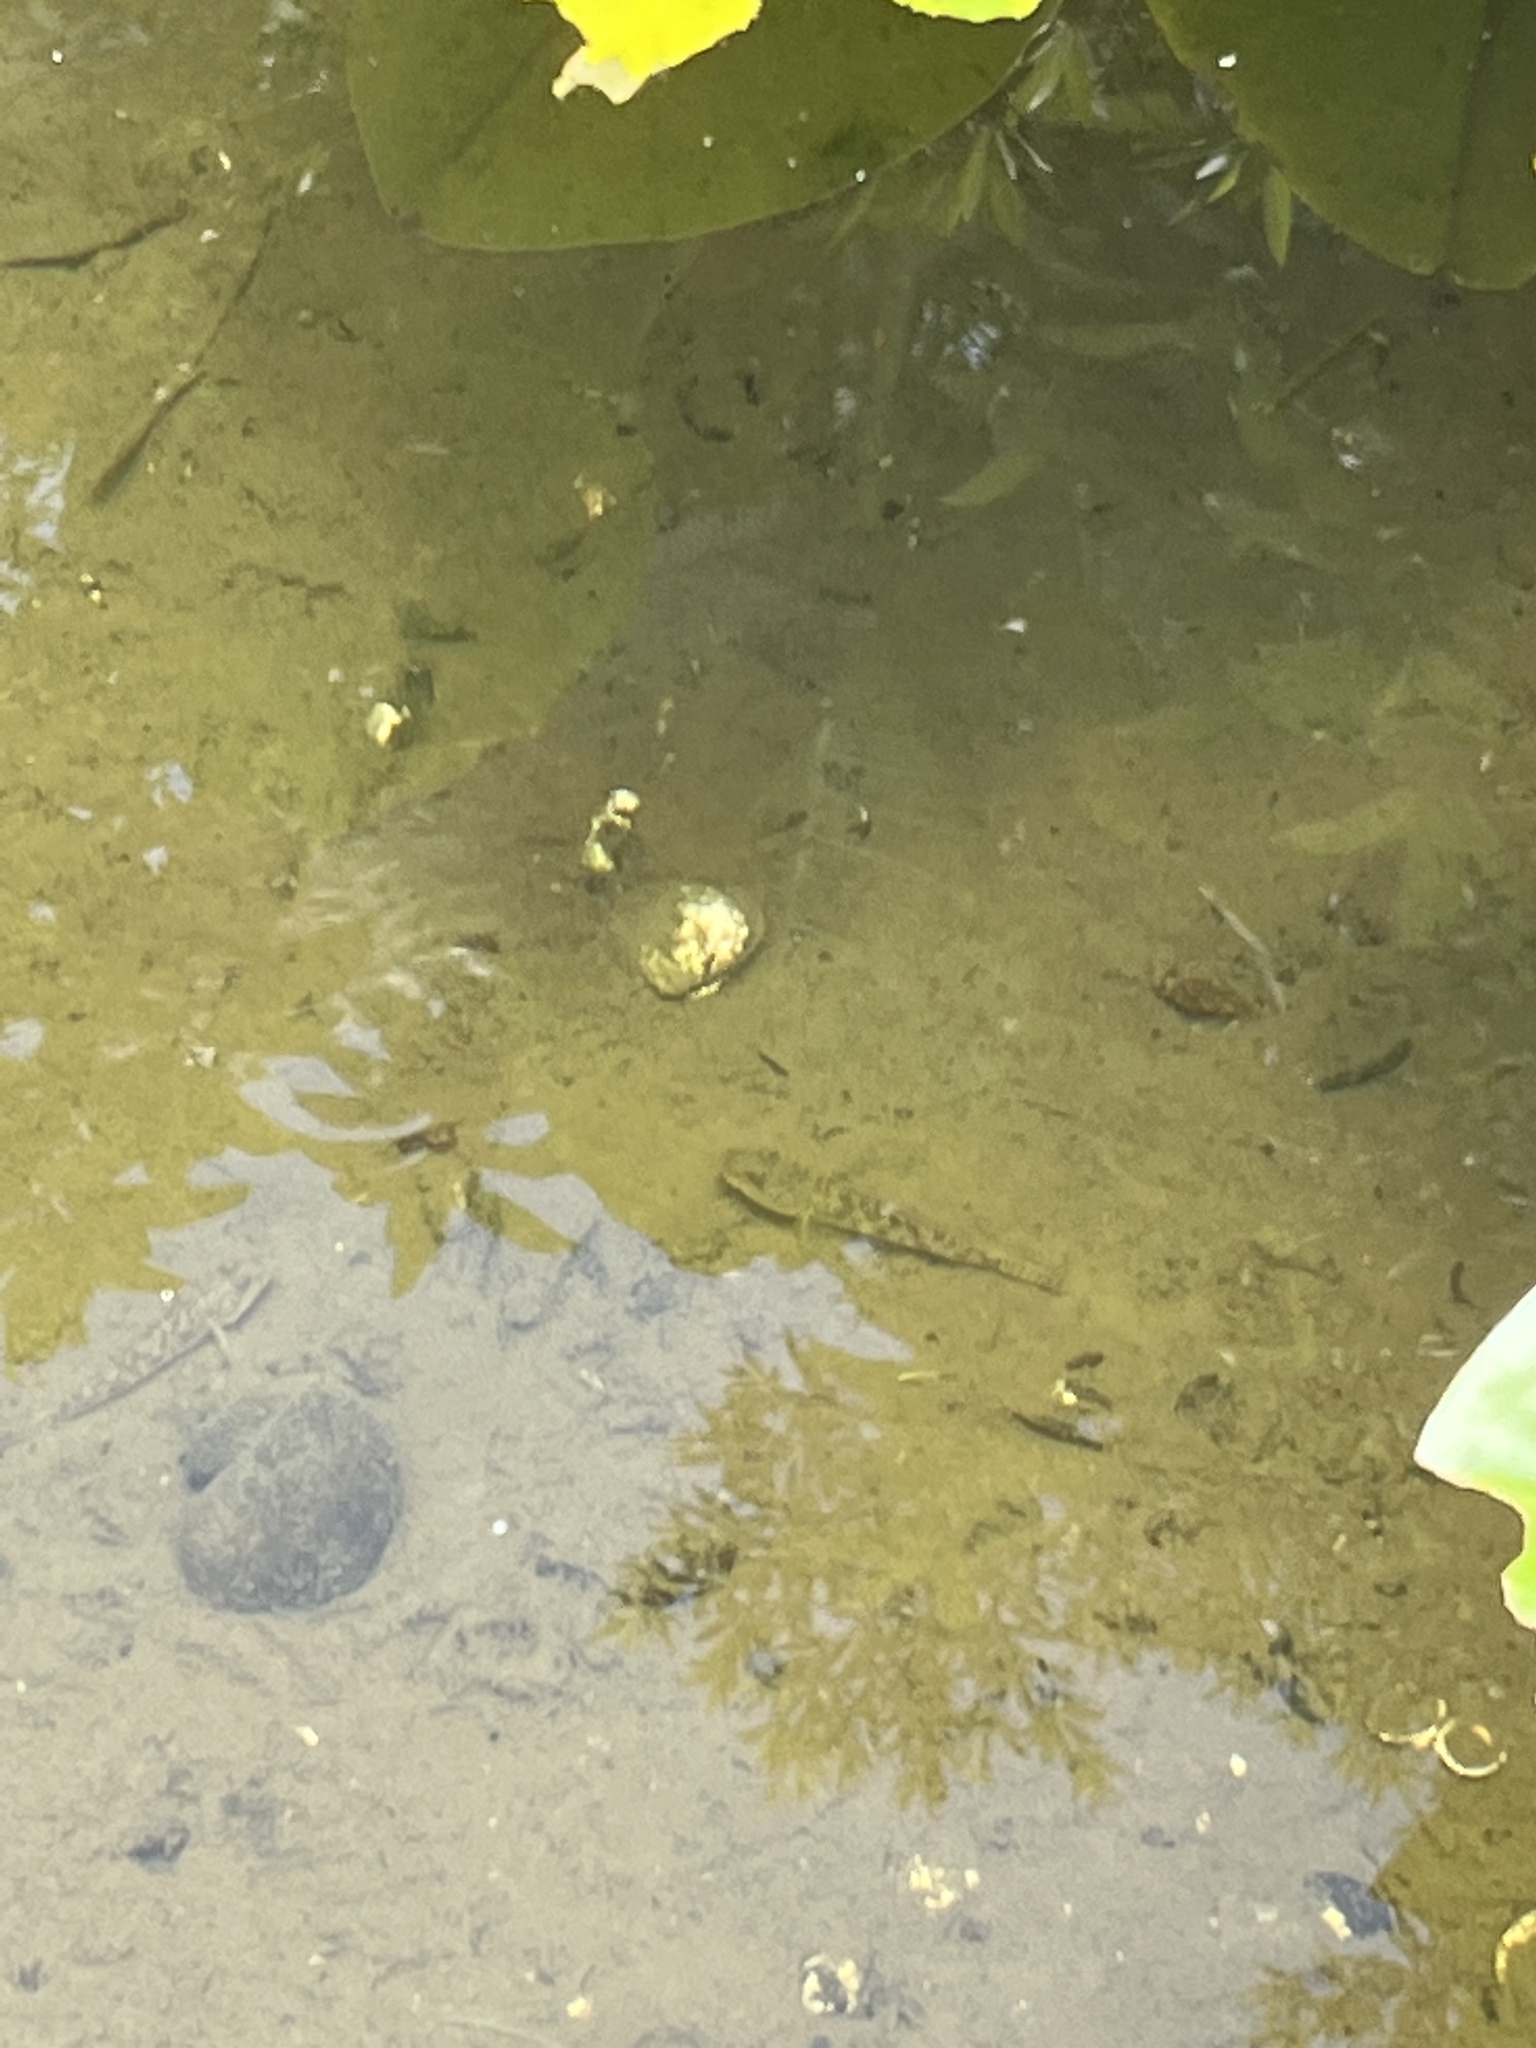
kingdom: Animalia
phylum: Chordata
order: Perciformes
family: Gobiidae
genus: Rhinogobius
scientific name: Rhinogobius similis
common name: Amur goby
